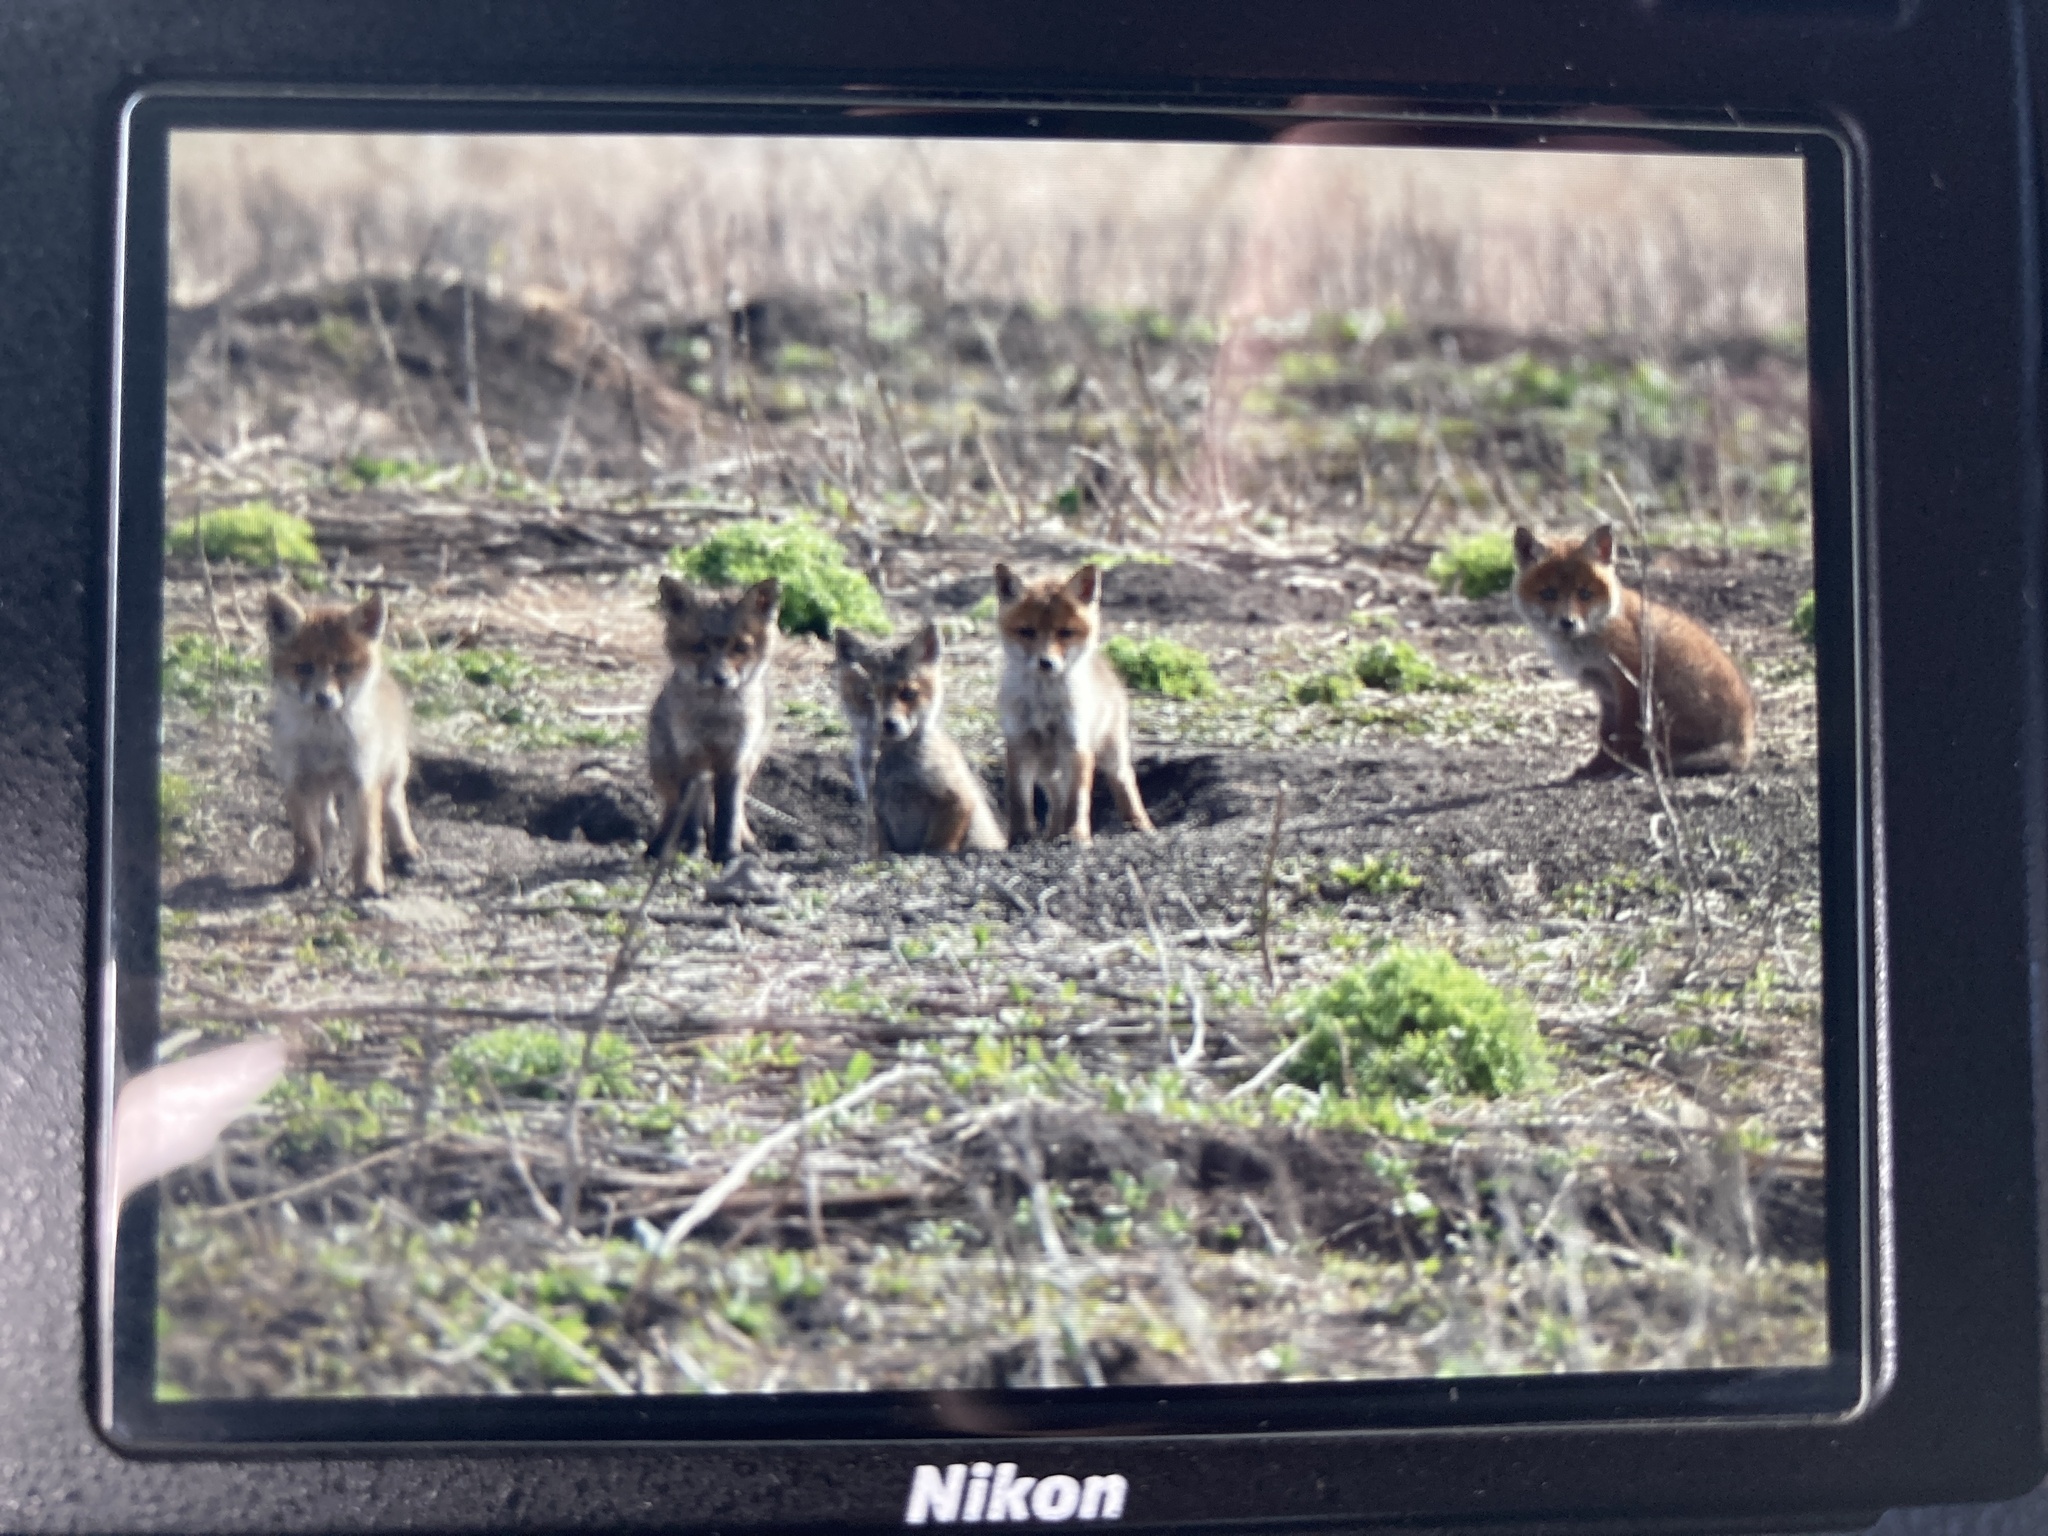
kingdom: Animalia
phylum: Chordata
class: Mammalia
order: Carnivora
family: Canidae
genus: Vulpes
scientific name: Vulpes vulpes
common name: Red fox
